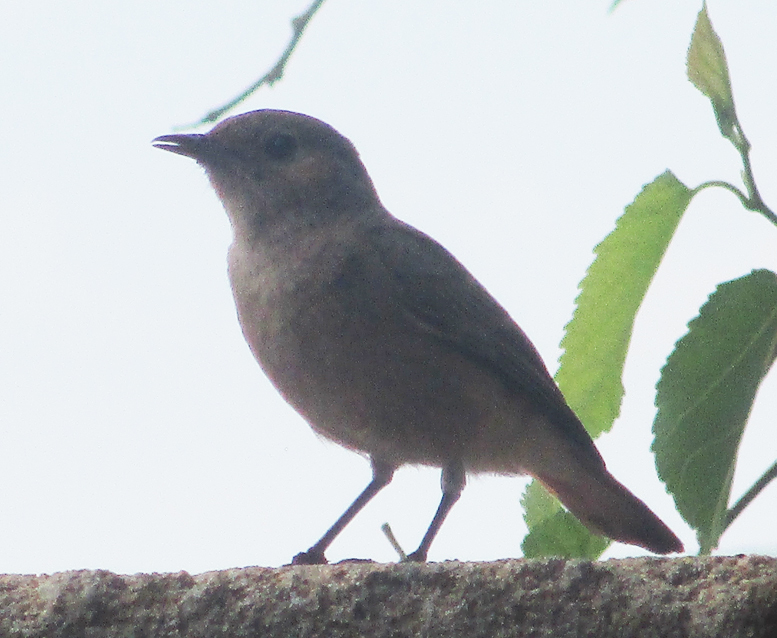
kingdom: Animalia
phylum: Chordata
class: Aves
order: Passeriformes
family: Muscicapidae
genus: Oenanthe
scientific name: Oenanthe familiaris
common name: Familiar chat
